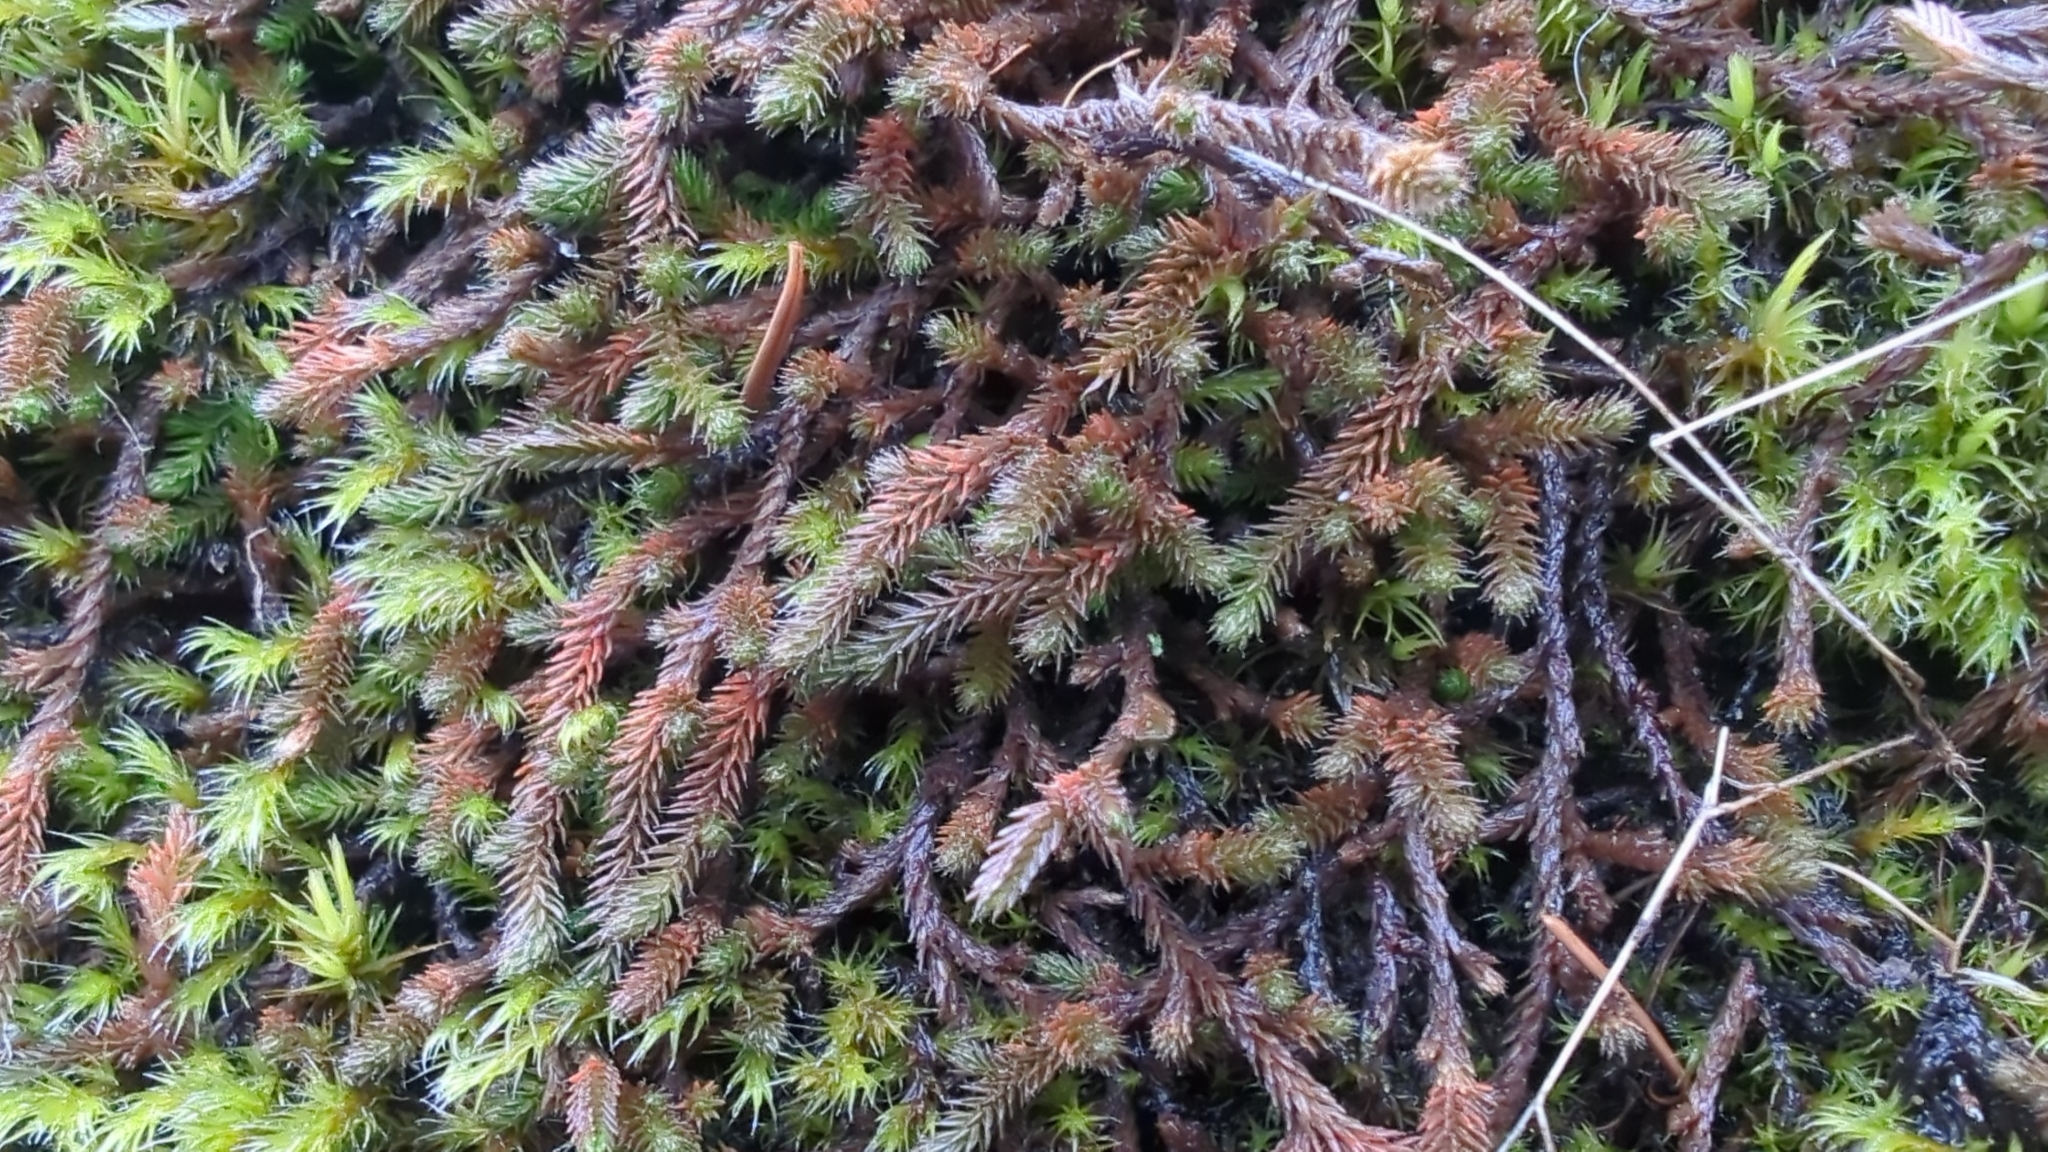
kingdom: Plantae
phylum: Tracheophyta
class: Lycopodiopsida
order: Selaginellales
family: Selaginellaceae
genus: Selaginella
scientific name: Selaginella wallacei
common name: Wallace's selaginella
